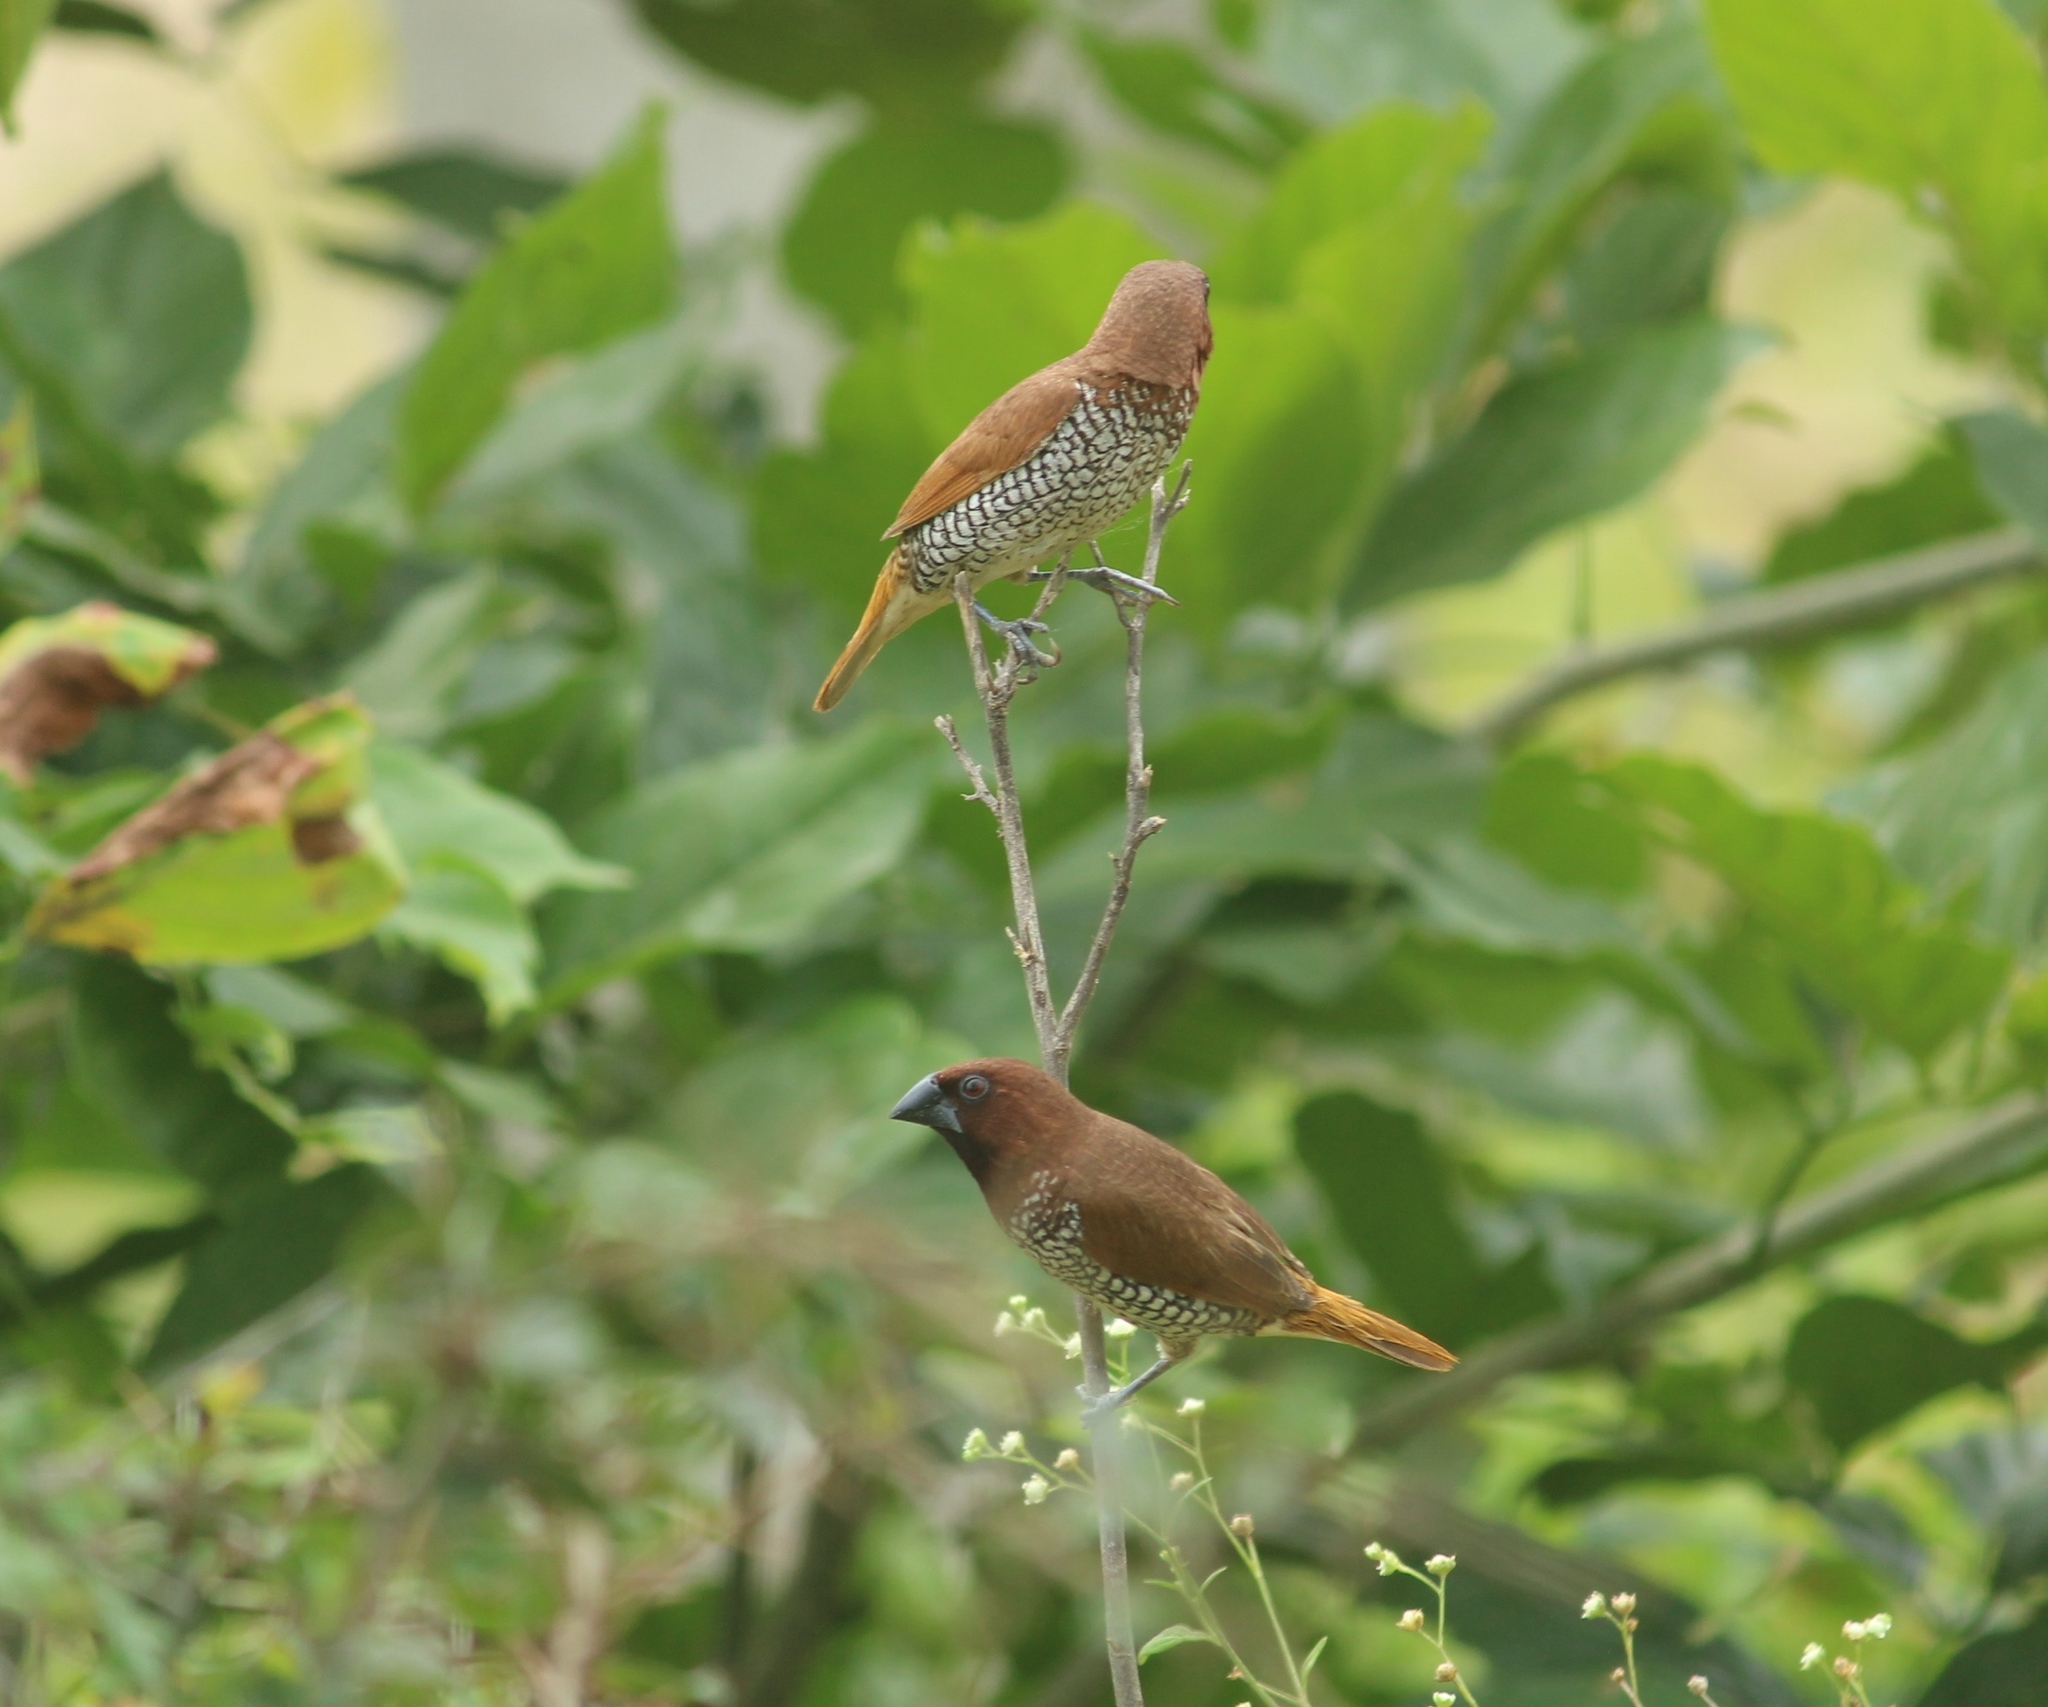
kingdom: Animalia
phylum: Chordata
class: Aves
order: Passeriformes
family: Estrildidae
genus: Lonchura
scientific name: Lonchura punctulata
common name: Scaly-breasted munia
